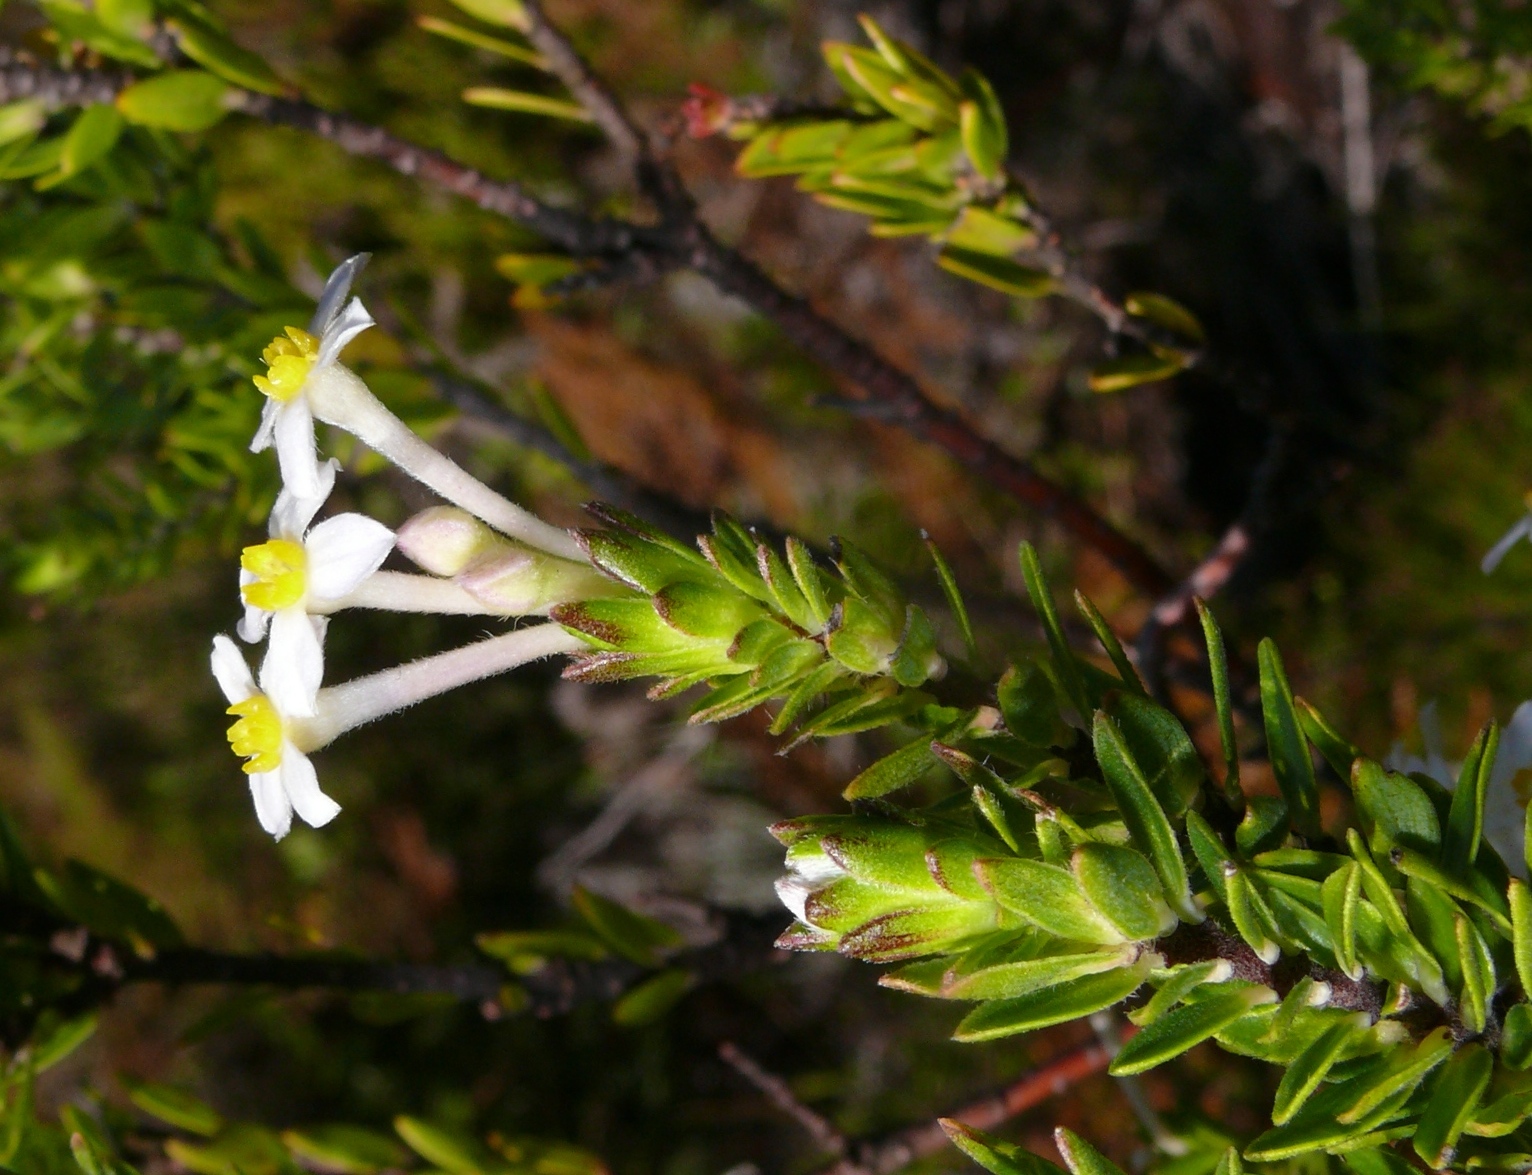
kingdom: Plantae
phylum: Tracheophyta
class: Magnoliopsida
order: Malvales
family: Thymelaeaceae
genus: Gnidia
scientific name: Gnidia tomentosa
